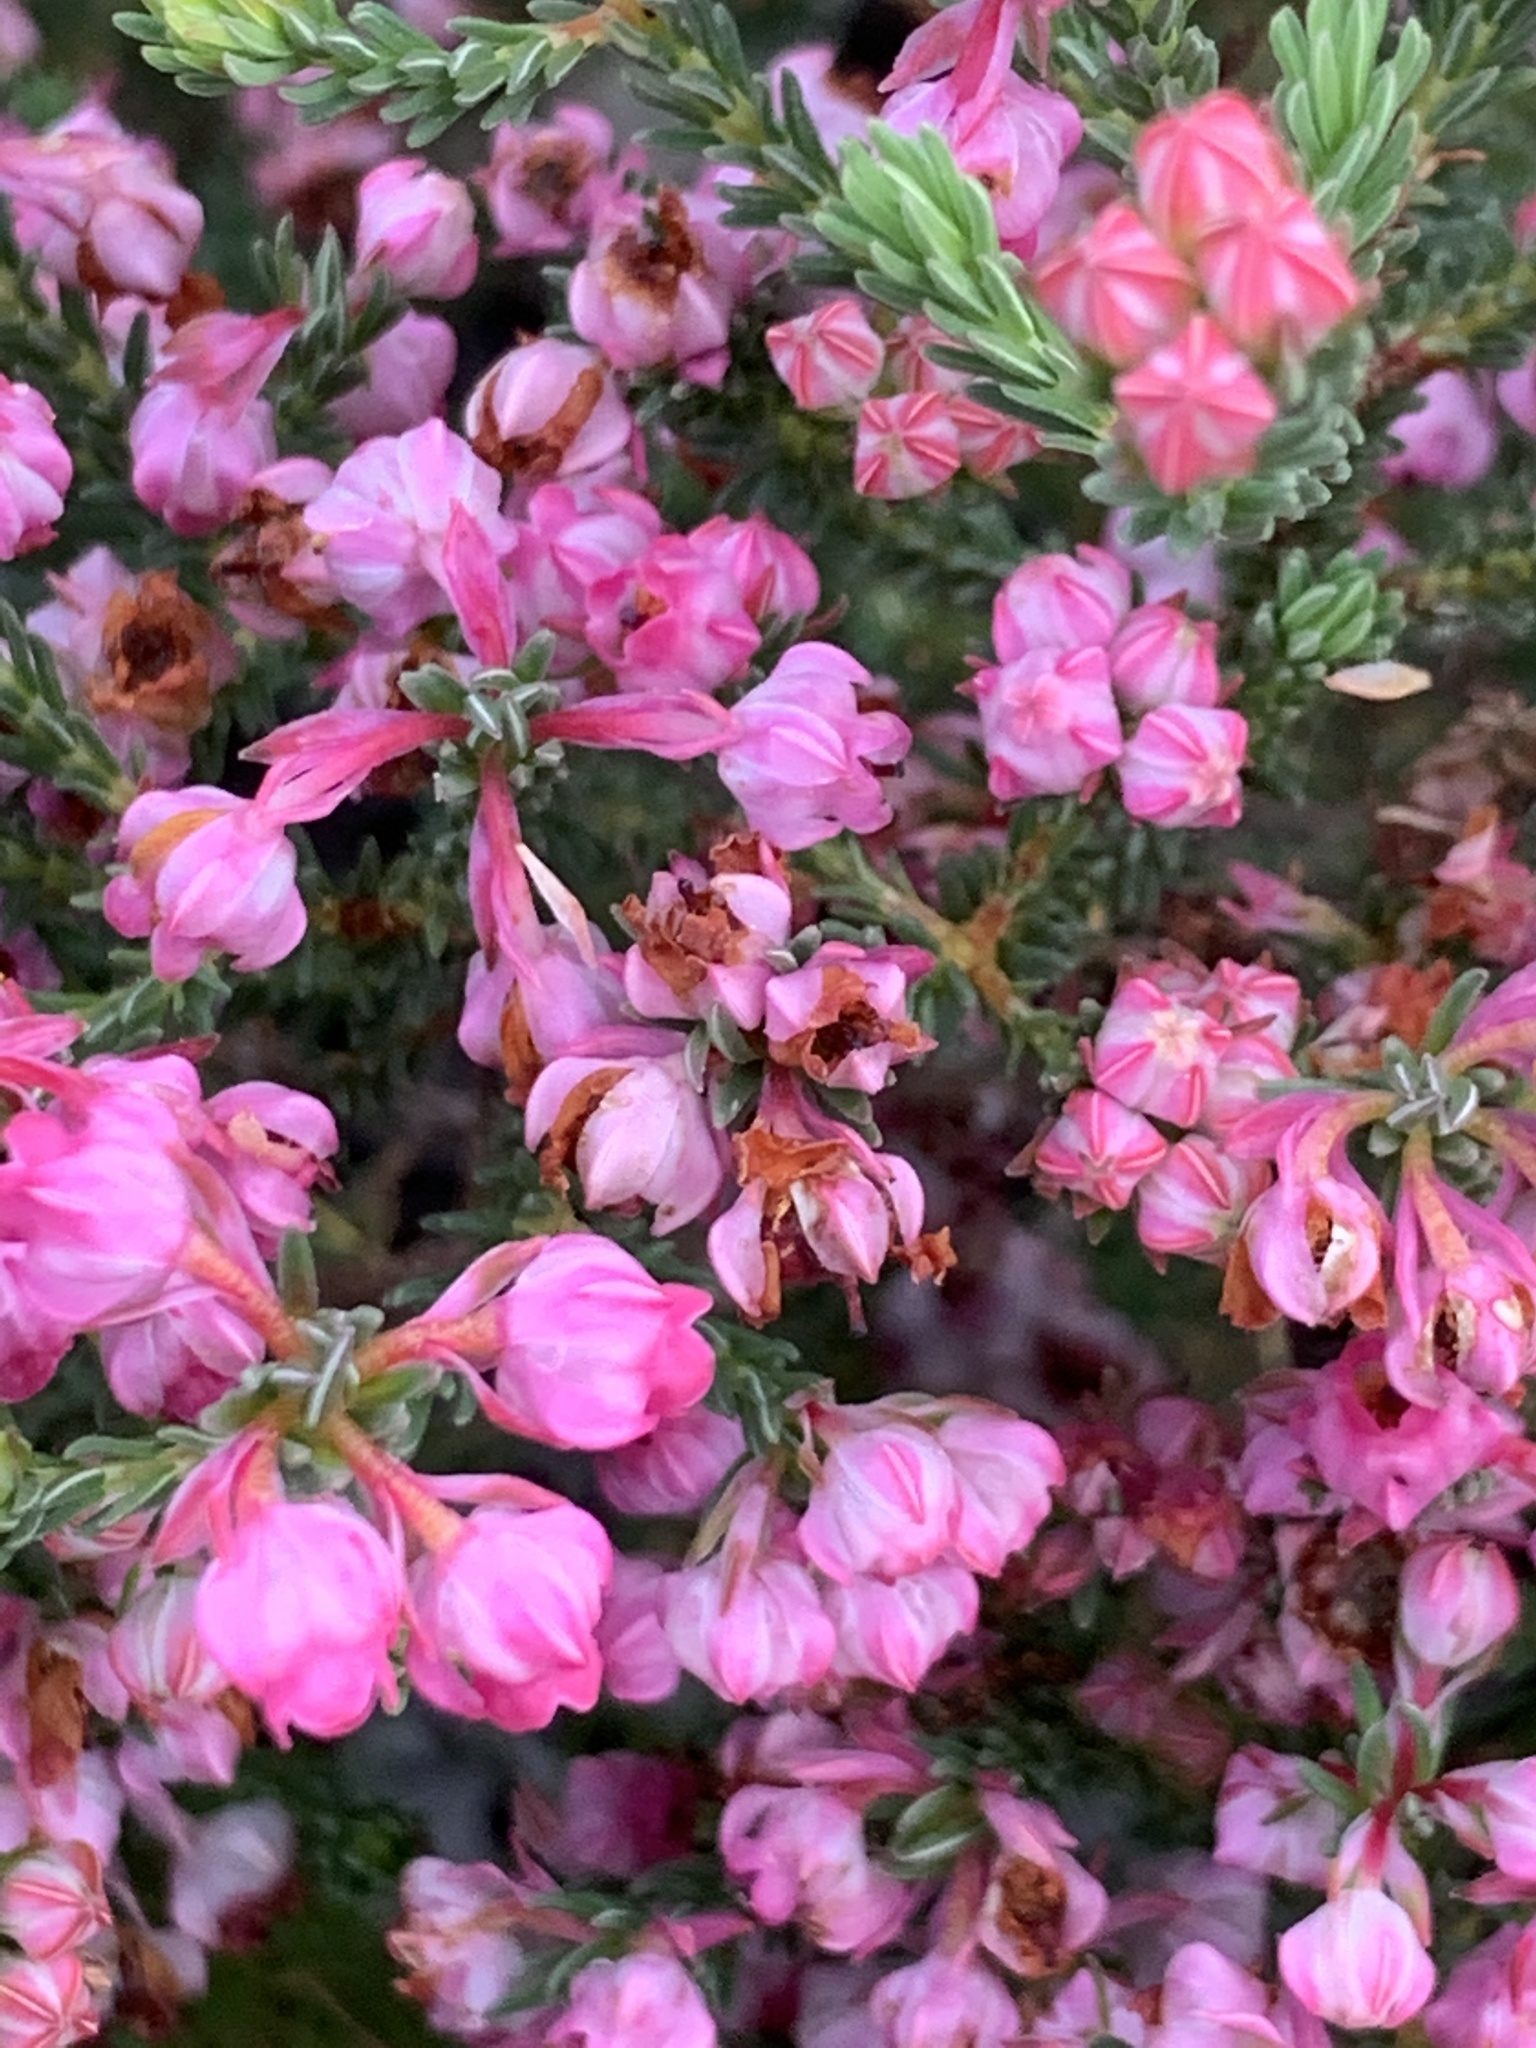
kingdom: Plantae
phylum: Tracheophyta
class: Magnoliopsida
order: Ericales
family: Ericaceae
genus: Erica
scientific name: Erica baccans
